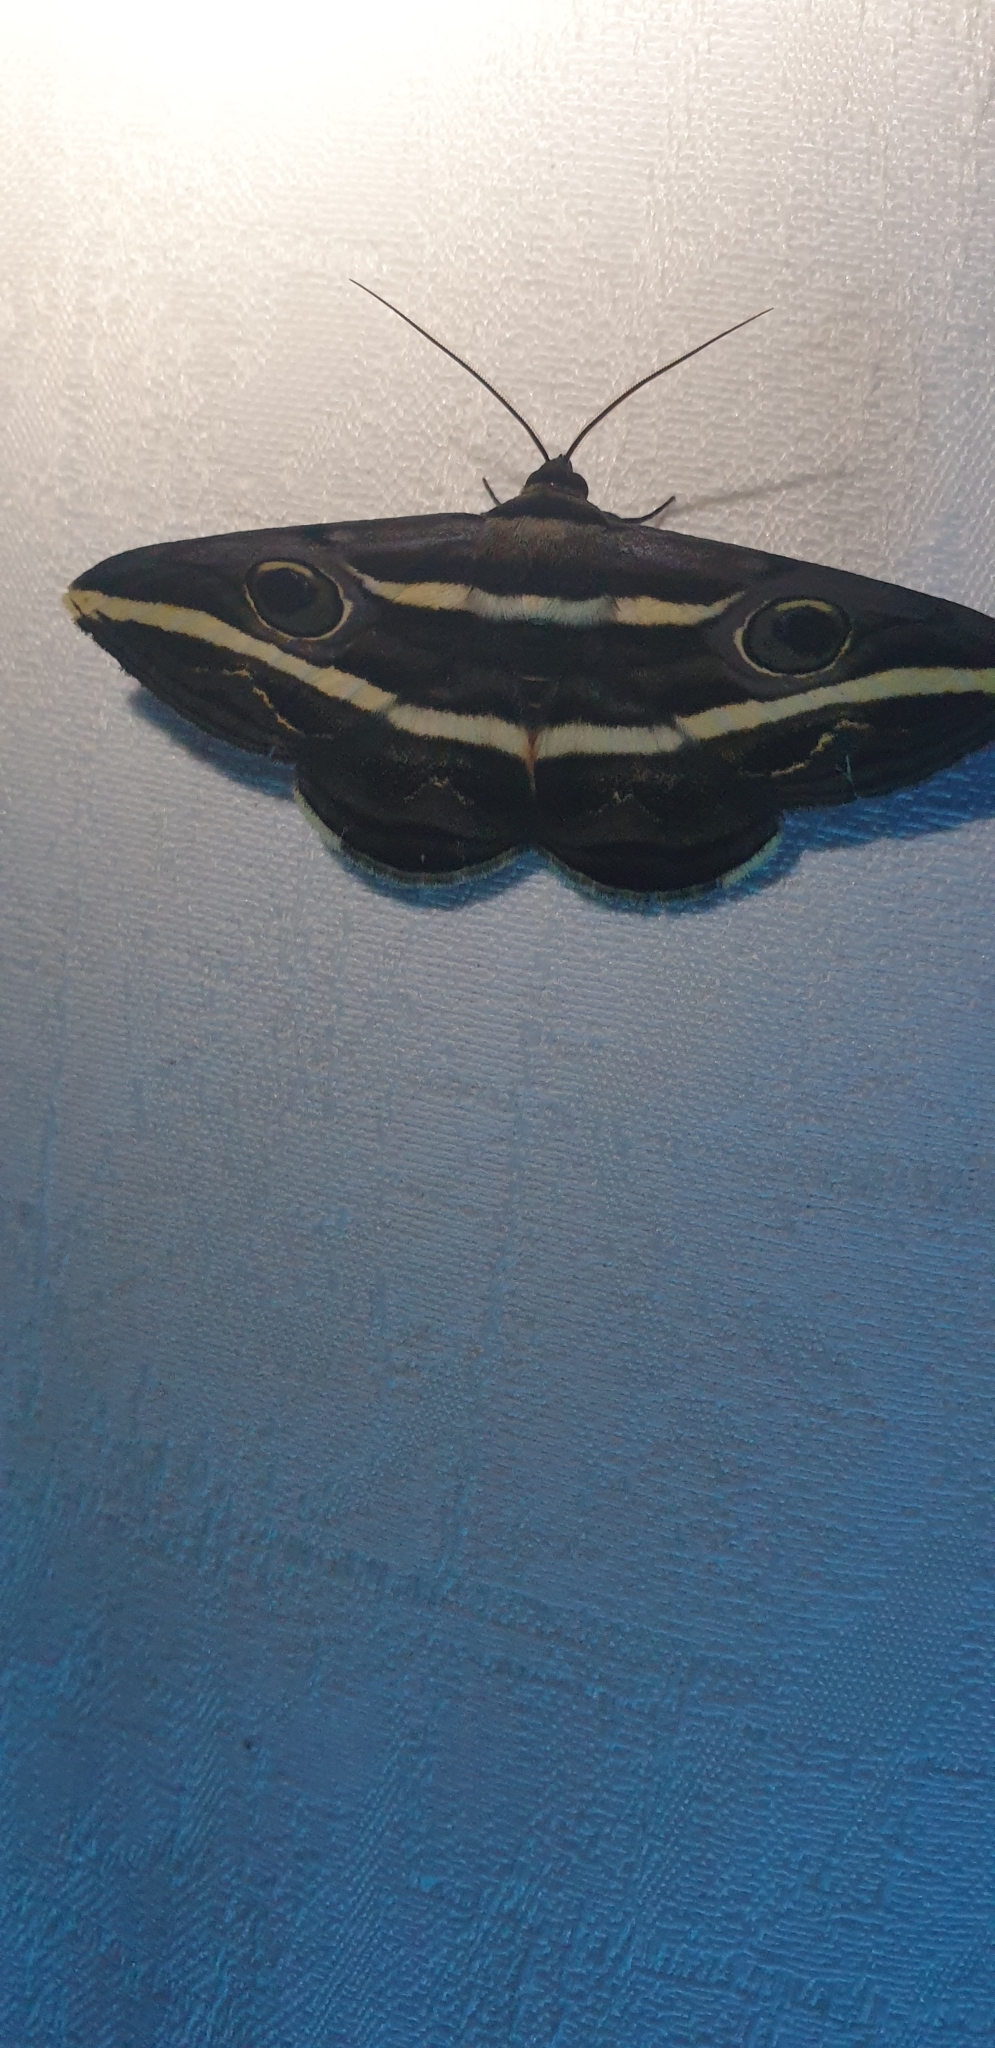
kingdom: Animalia
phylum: Arthropoda
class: Insecta
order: Lepidoptera
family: Erebidae
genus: Donuca
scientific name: Donuca rubropicta
